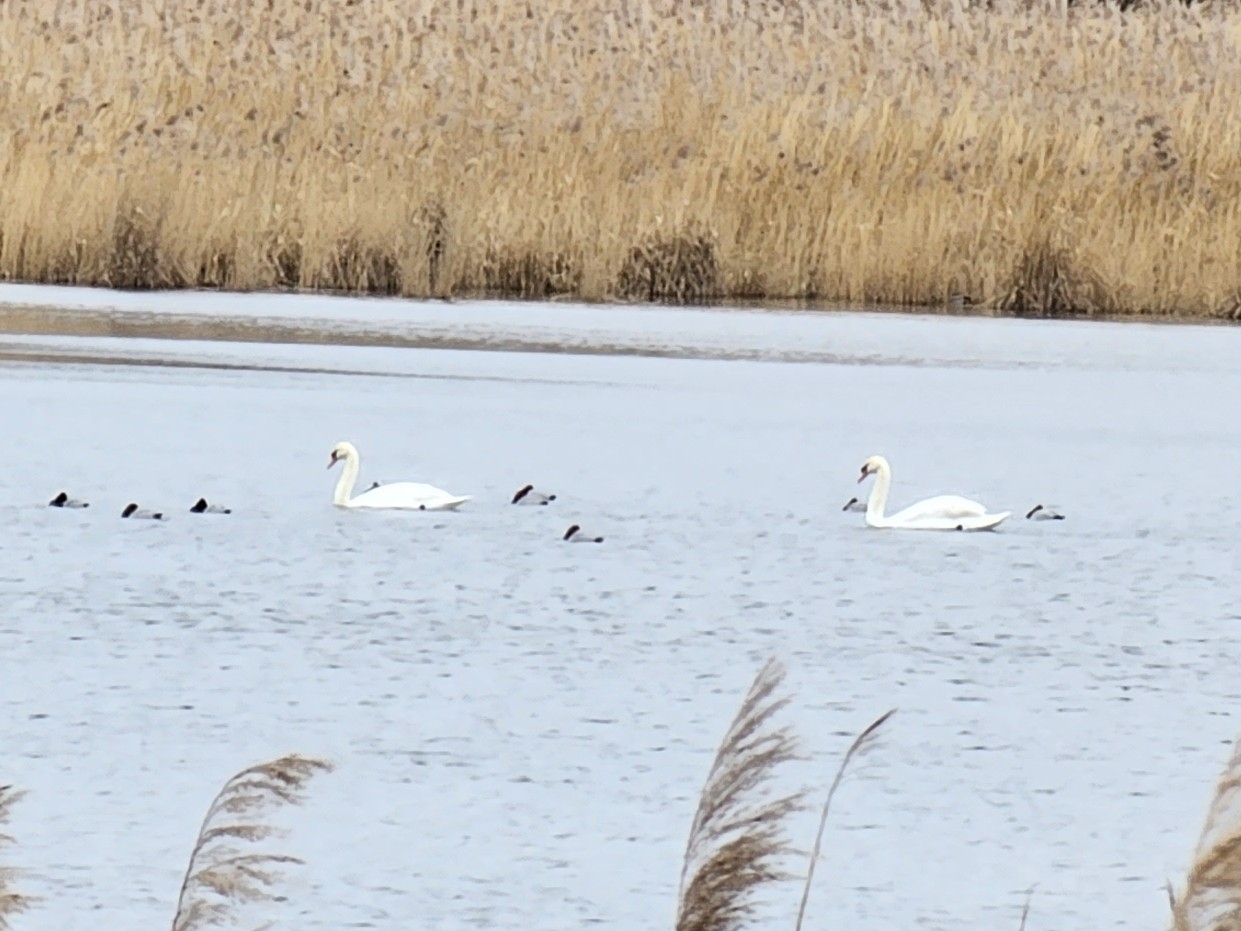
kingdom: Animalia
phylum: Chordata
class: Aves
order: Anseriformes
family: Anatidae
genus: Cygnus
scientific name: Cygnus olor
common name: Mute swan
